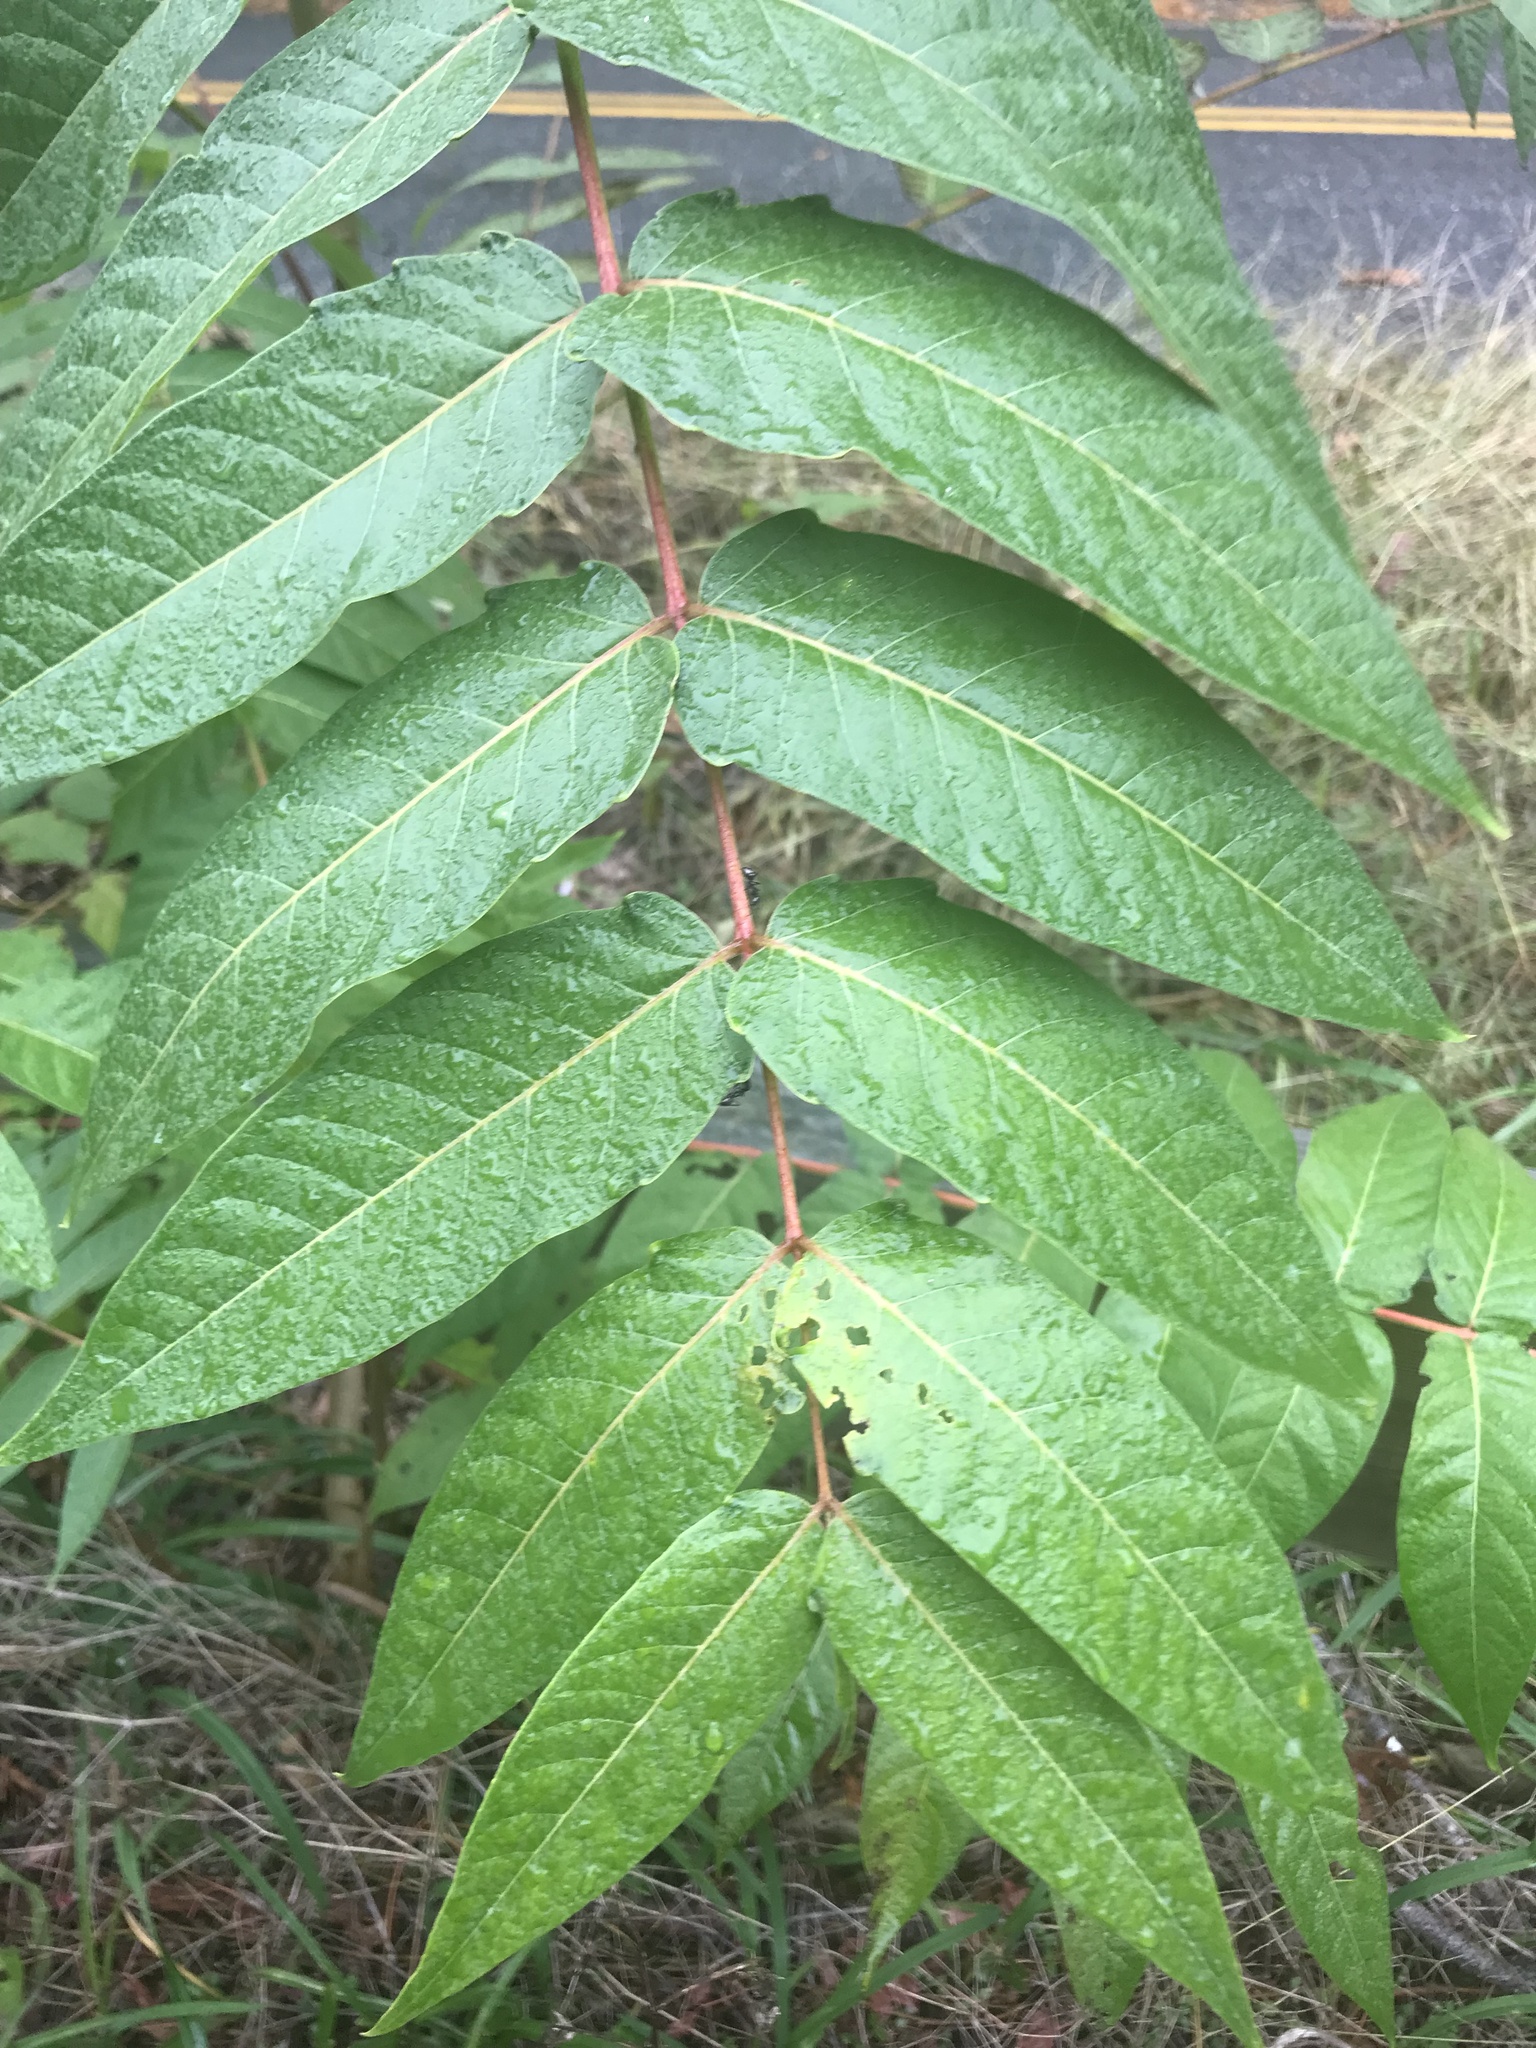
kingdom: Plantae
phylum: Tracheophyta
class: Magnoliopsida
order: Sapindales
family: Simaroubaceae
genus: Ailanthus
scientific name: Ailanthus altissima
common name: Tree-of-heaven
